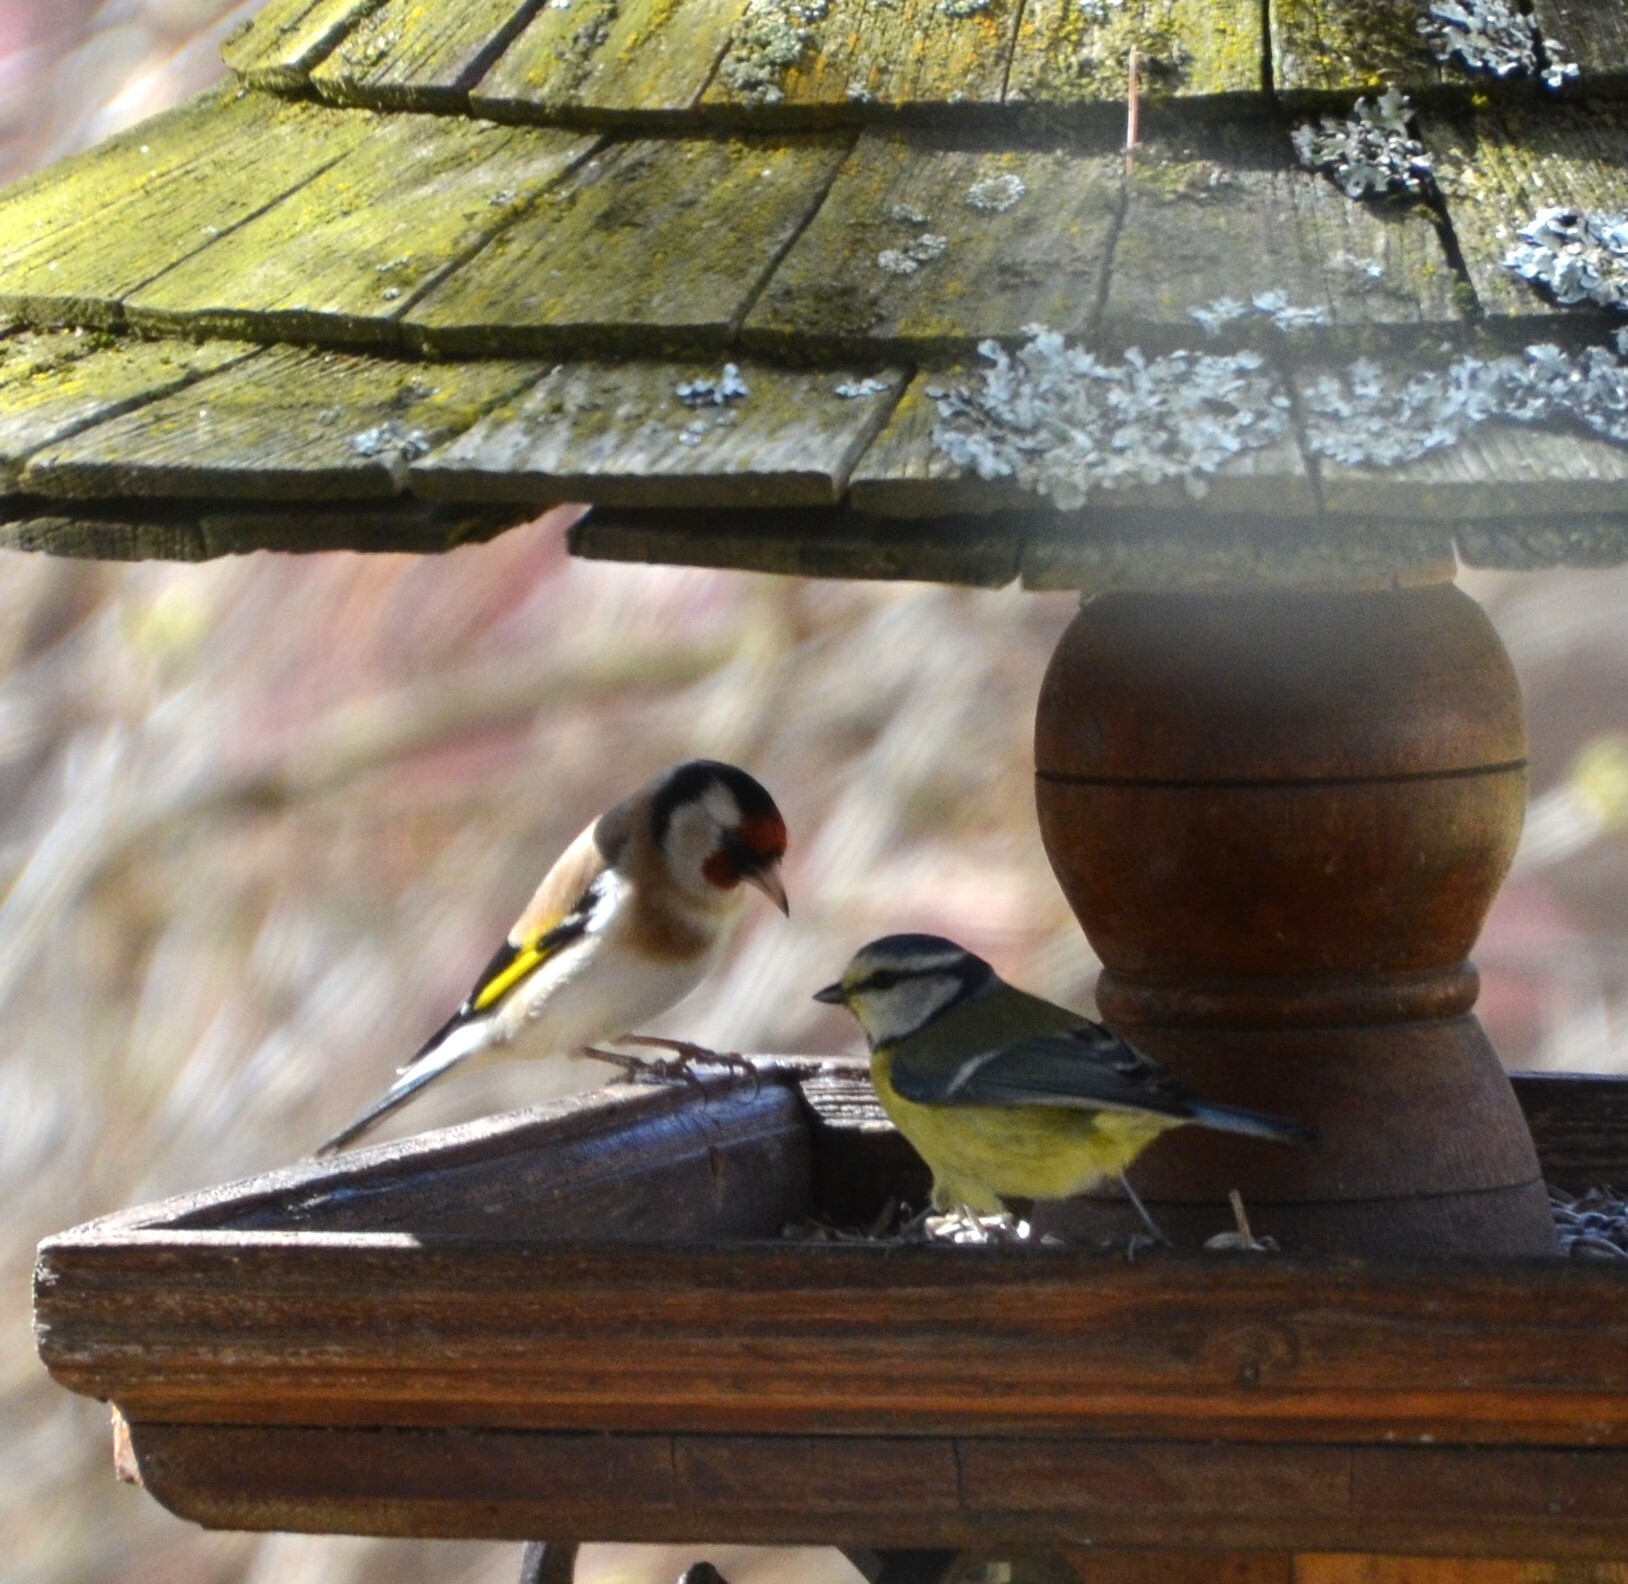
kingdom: Animalia
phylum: Chordata
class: Aves
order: Passeriformes
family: Fringillidae
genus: Carduelis
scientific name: Carduelis carduelis
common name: European goldfinch
